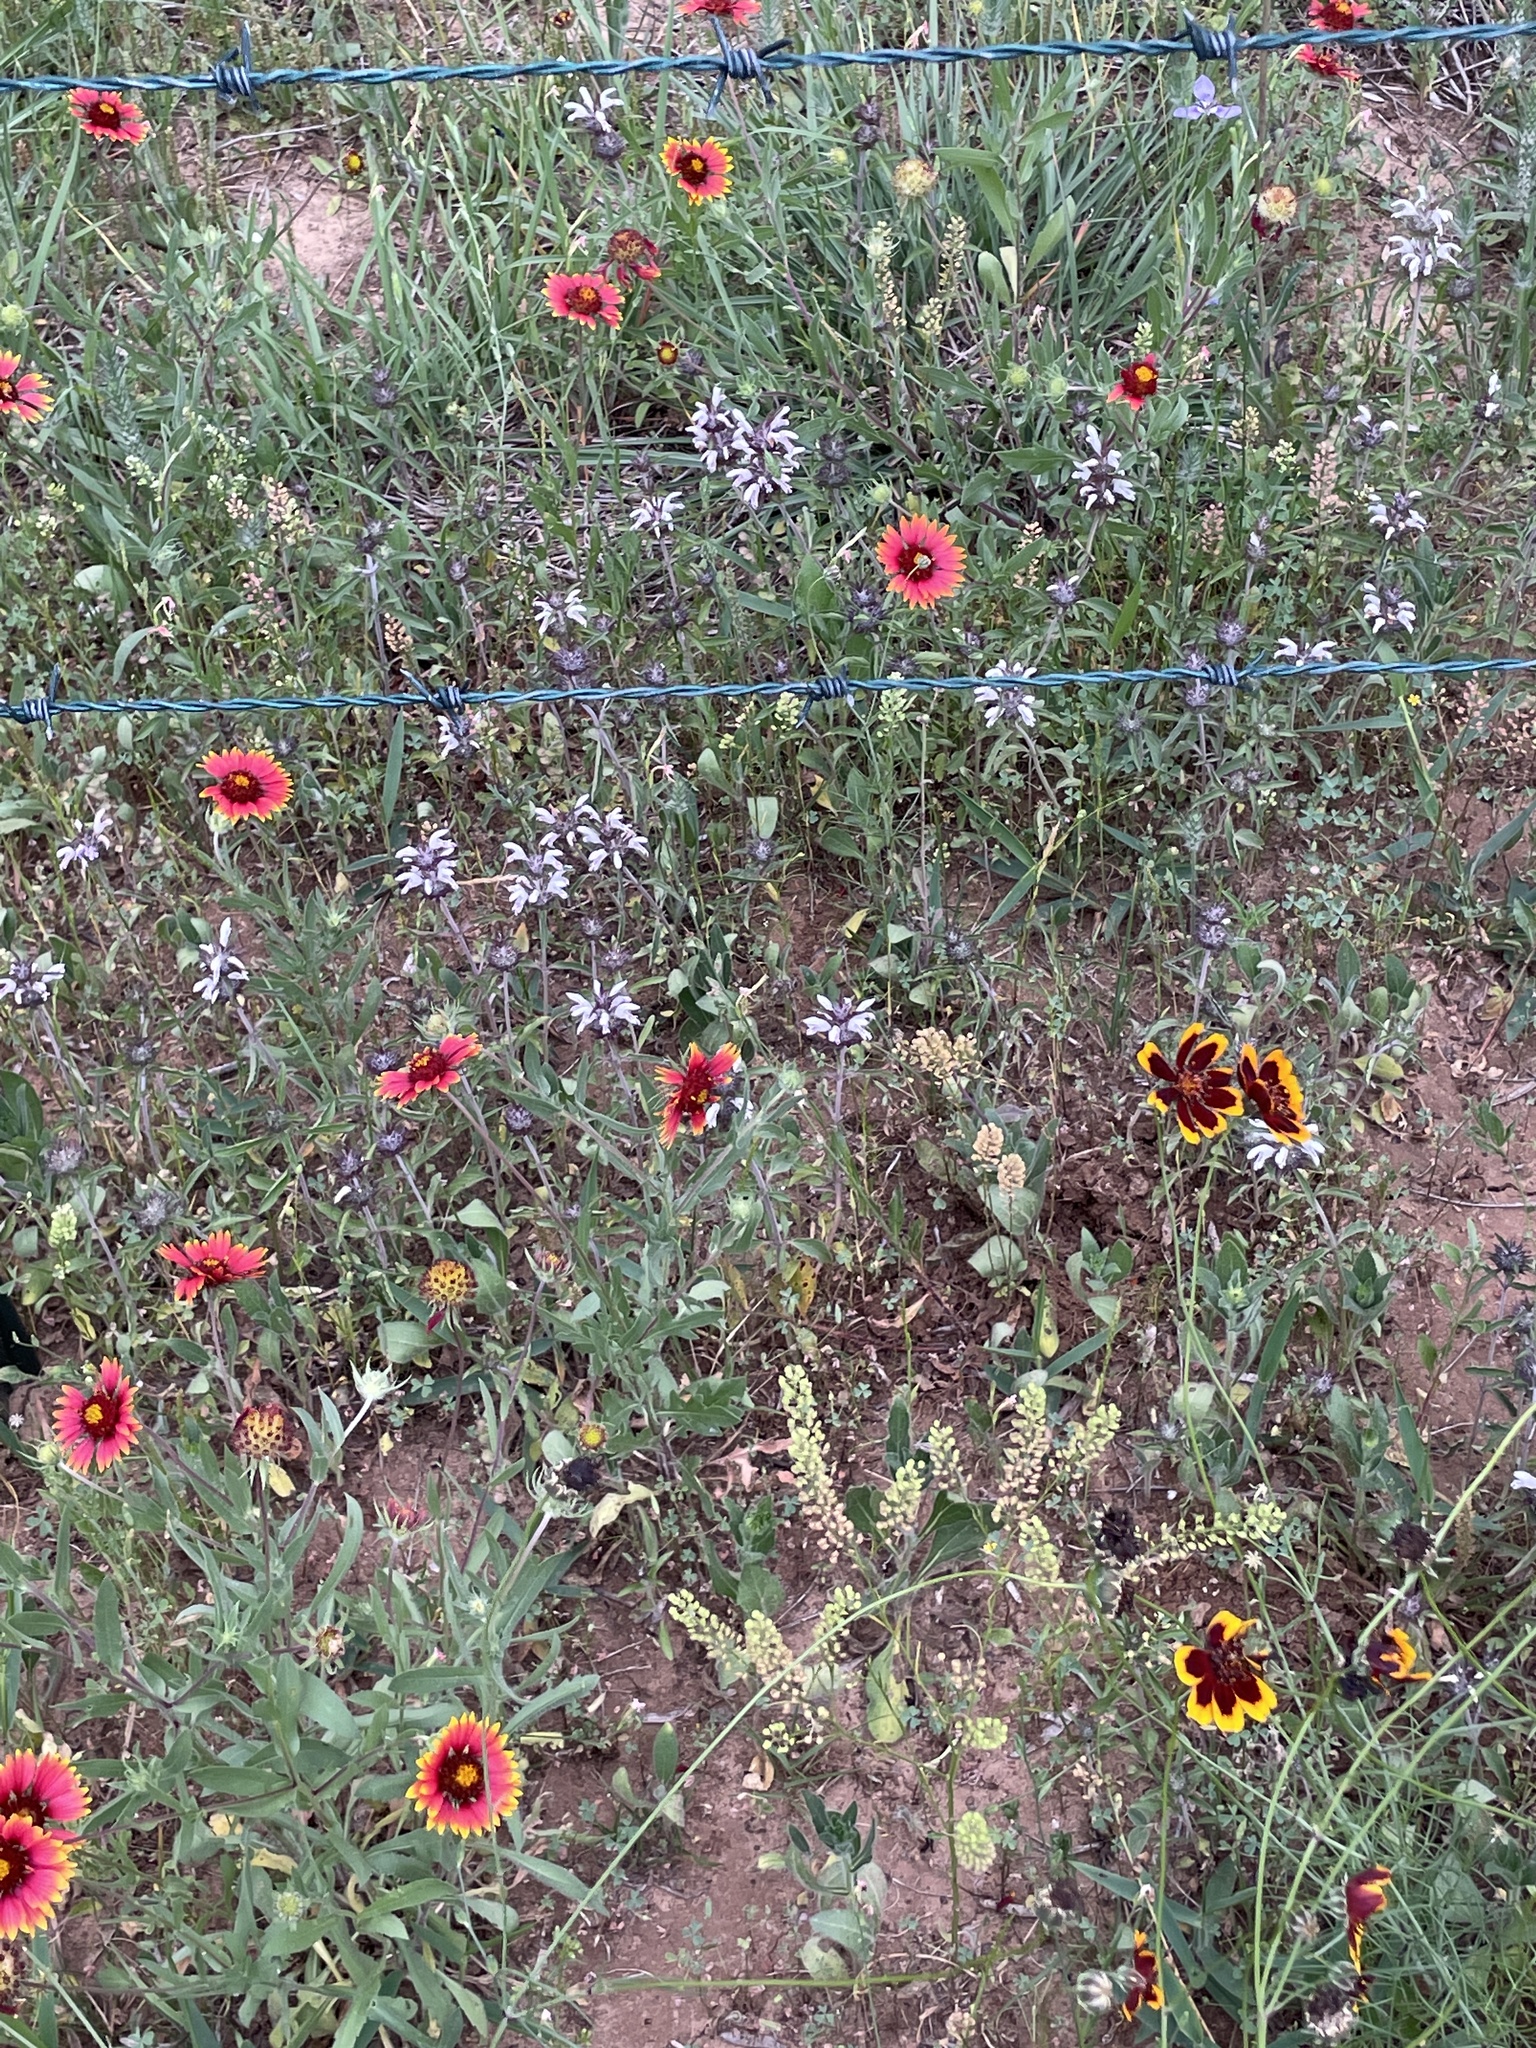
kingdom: Plantae
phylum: Tracheophyta
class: Magnoliopsida
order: Lamiales
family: Lamiaceae
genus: Monarda
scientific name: Monarda clinopodioides
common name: Basil beebalm
